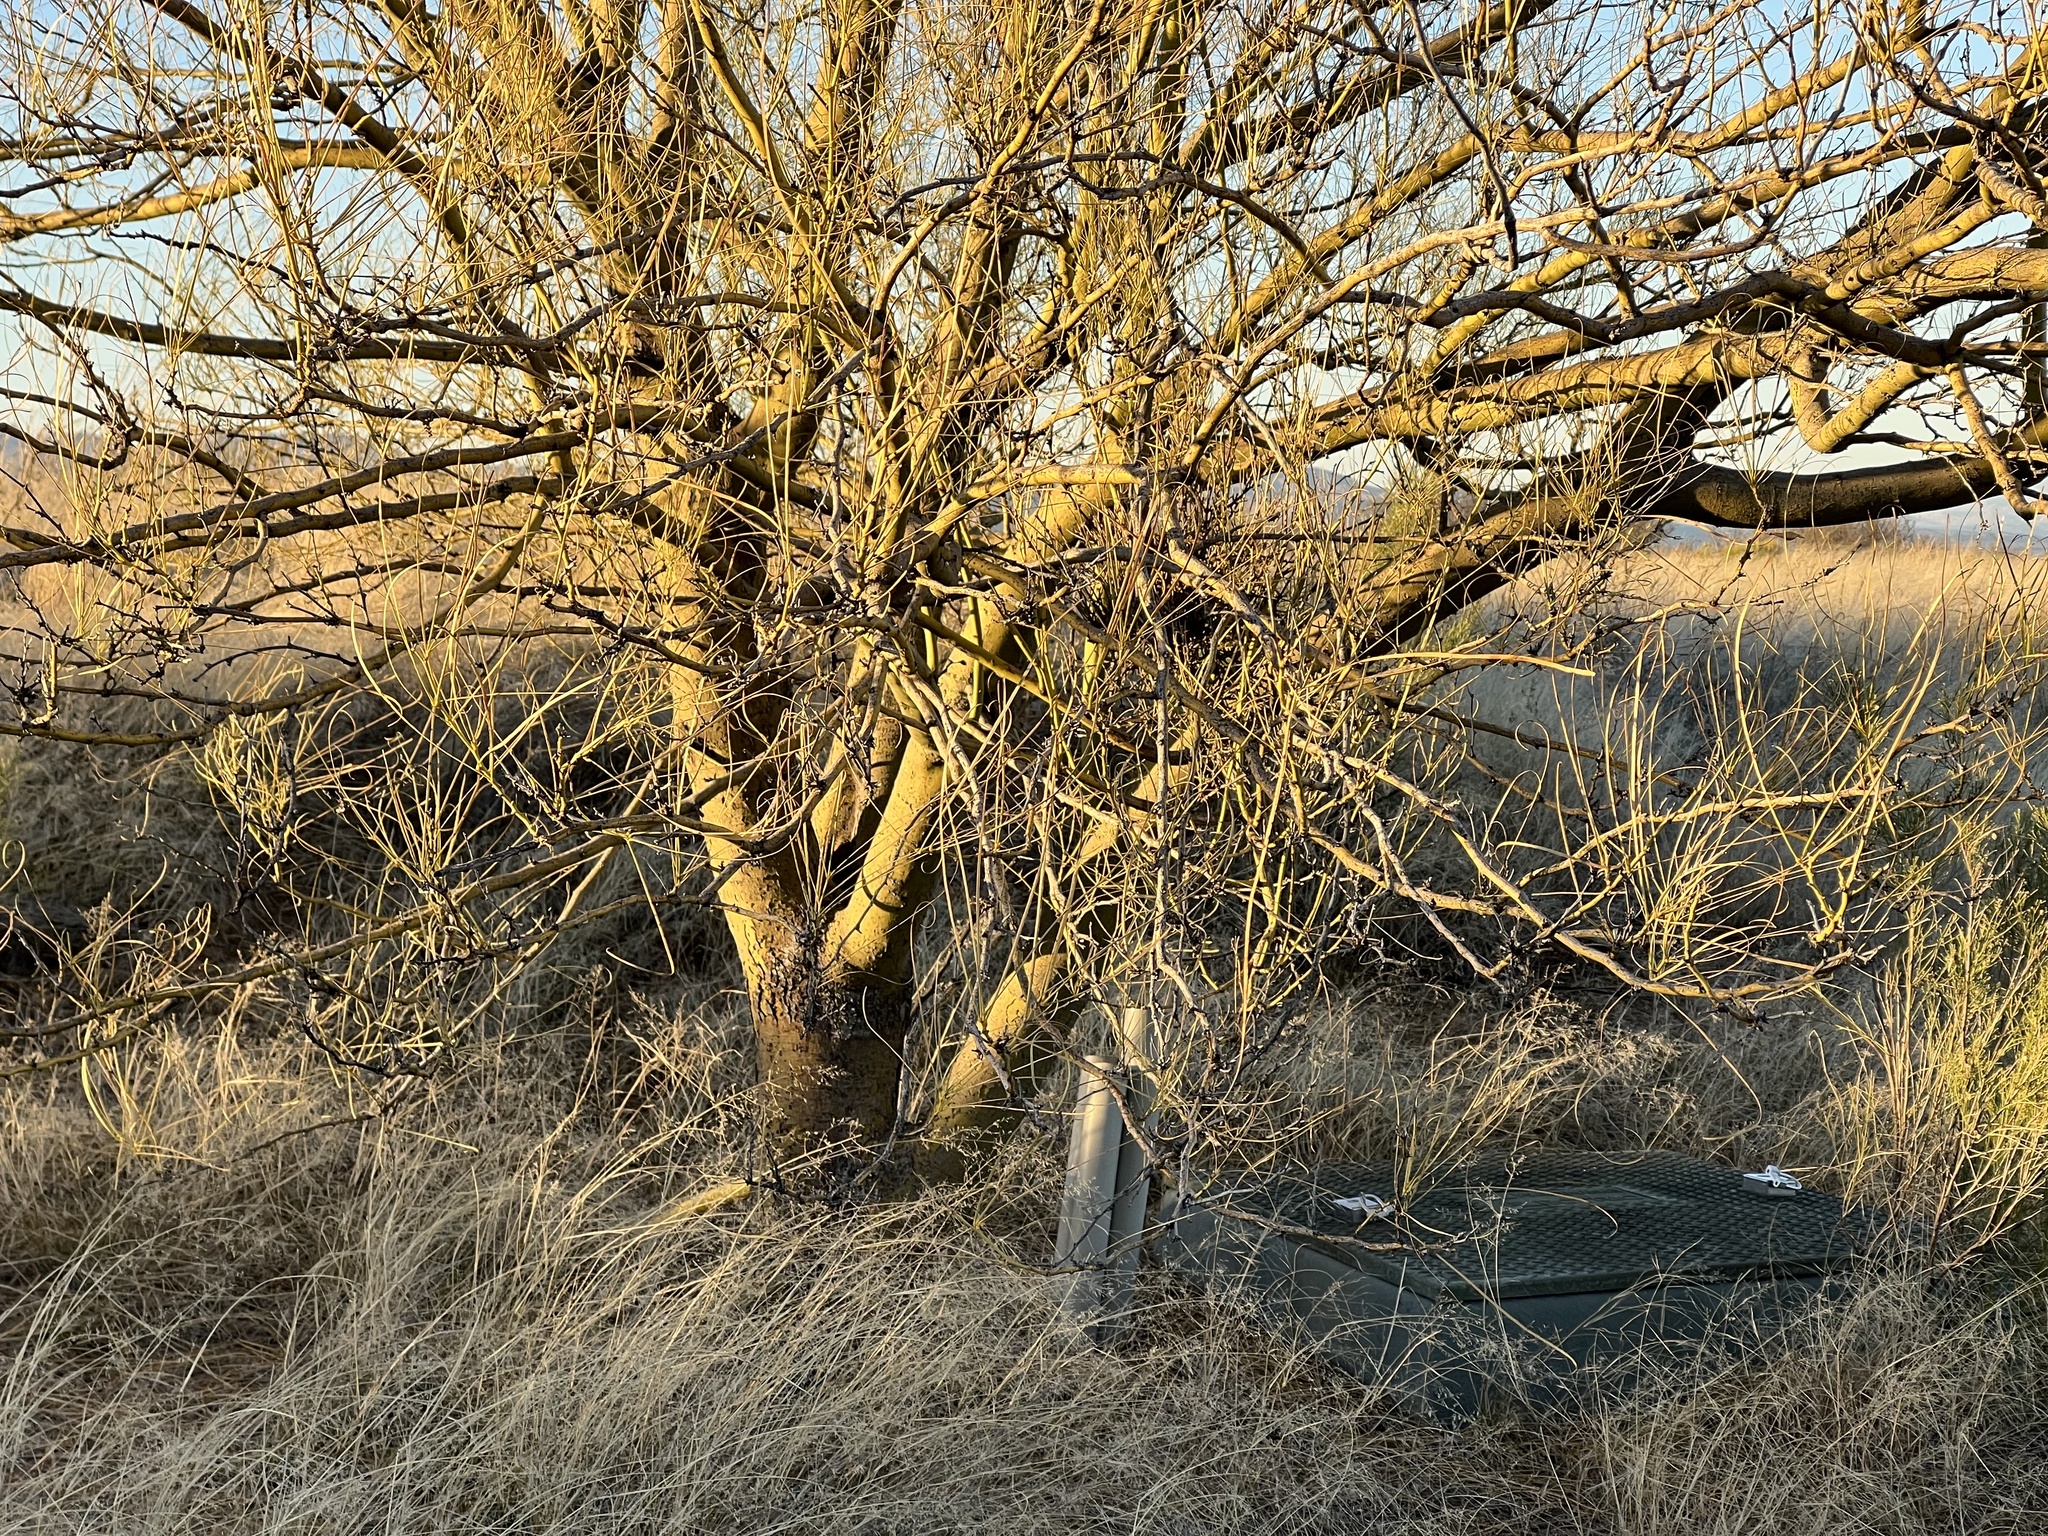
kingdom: Plantae
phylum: Tracheophyta
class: Magnoliopsida
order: Fabales
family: Fabaceae
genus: Parkinsonia
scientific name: Parkinsonia aculeata
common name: Jerusalem thorn
